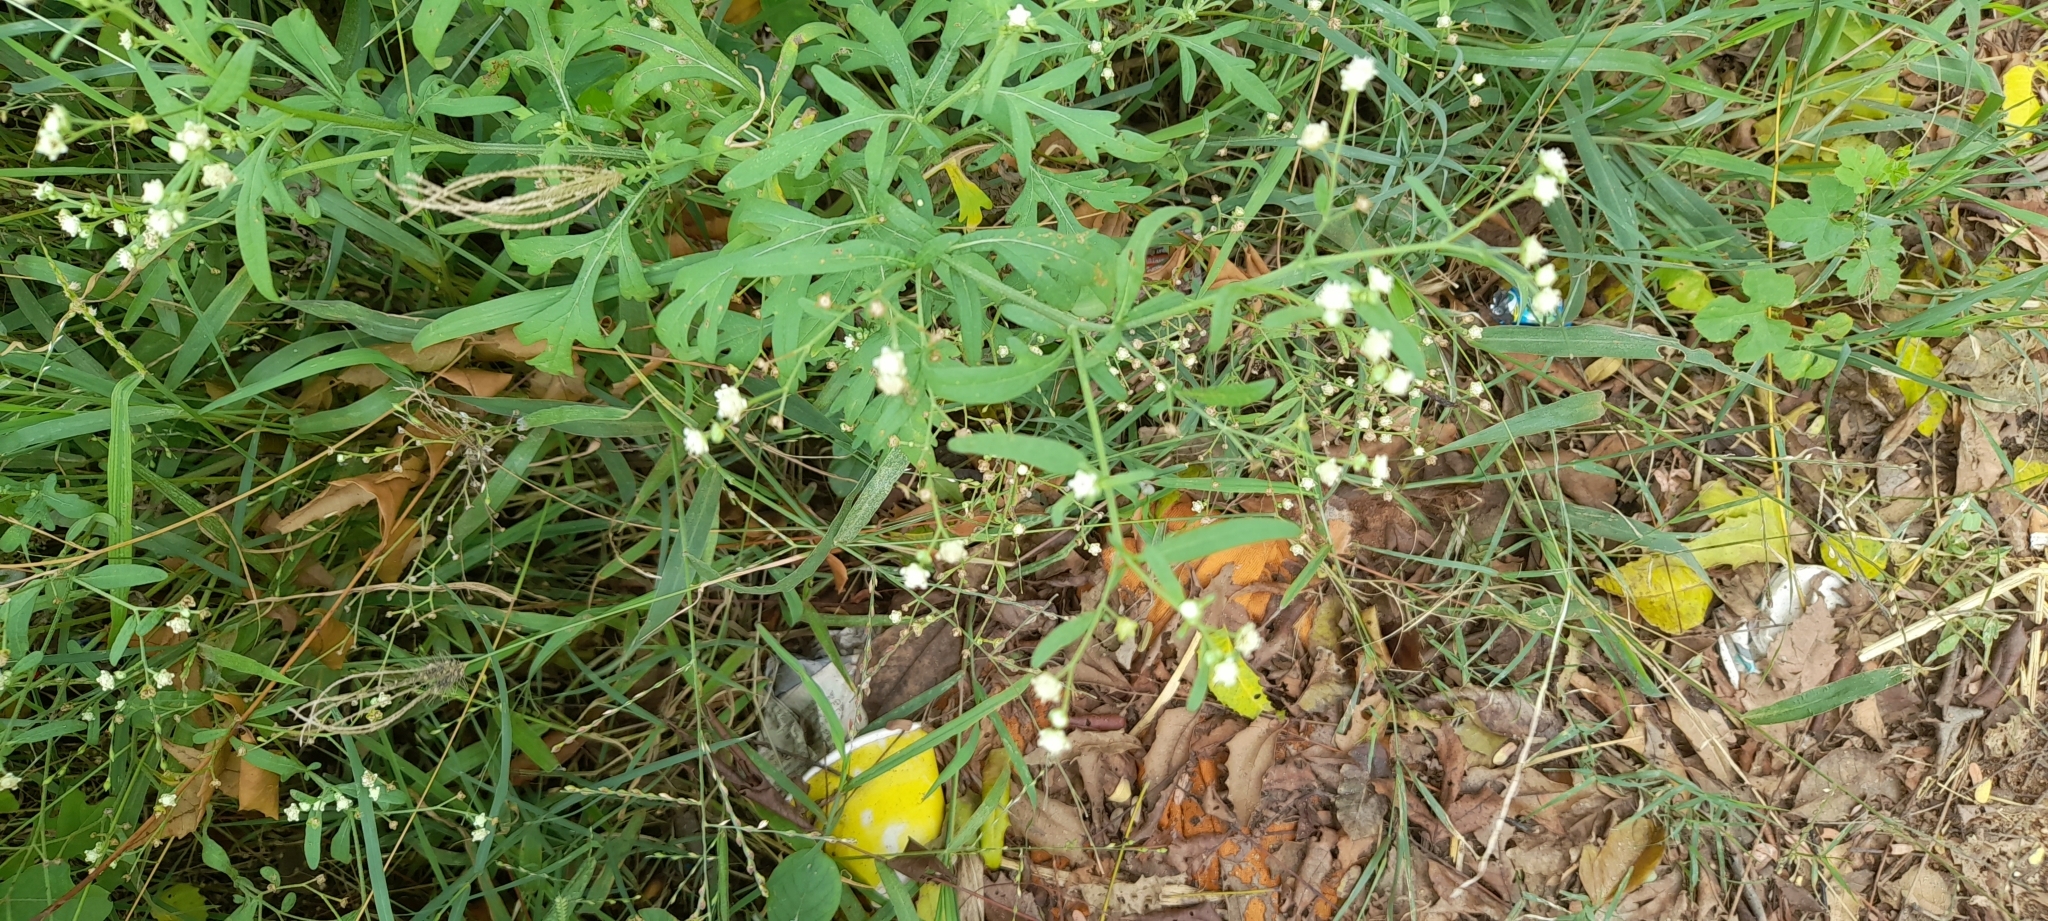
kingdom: Plantae
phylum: Tracheophyta
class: Magnoliopsida
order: Asterales
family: Asteraceae
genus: Parthenium
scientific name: Parthenium hysterophorus
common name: Santa maria feverfew
